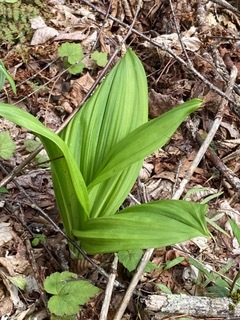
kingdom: Plantae
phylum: Tracheophyta
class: Liliopsida
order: Liliales
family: Melanthiaceae
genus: Veratrum
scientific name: Veratrum viride
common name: American false hellebore
